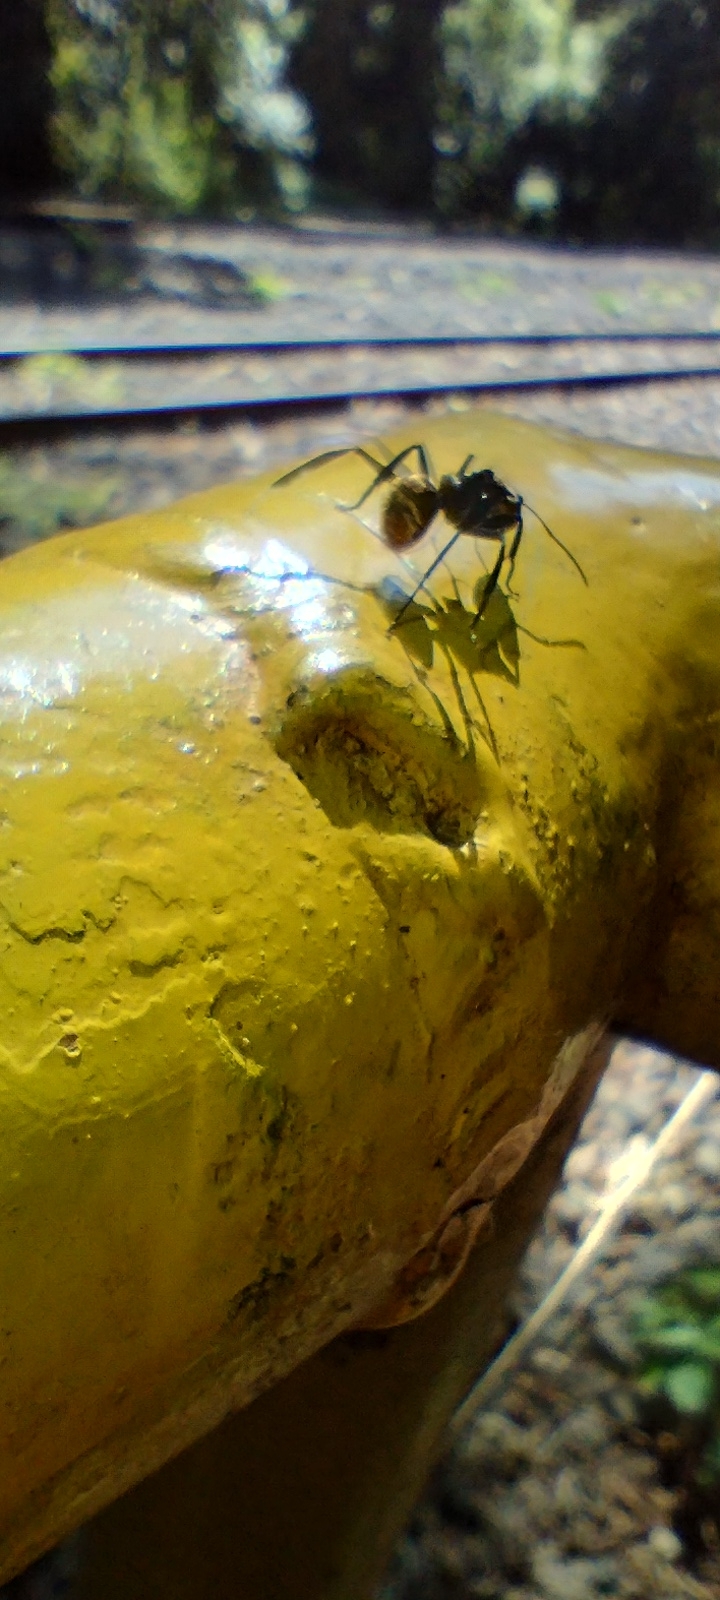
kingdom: Animalia
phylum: Arthropoda
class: Insecta
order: Hymenoptera
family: Formicidae
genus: Camponotus
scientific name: Camponotus sericeiventris
